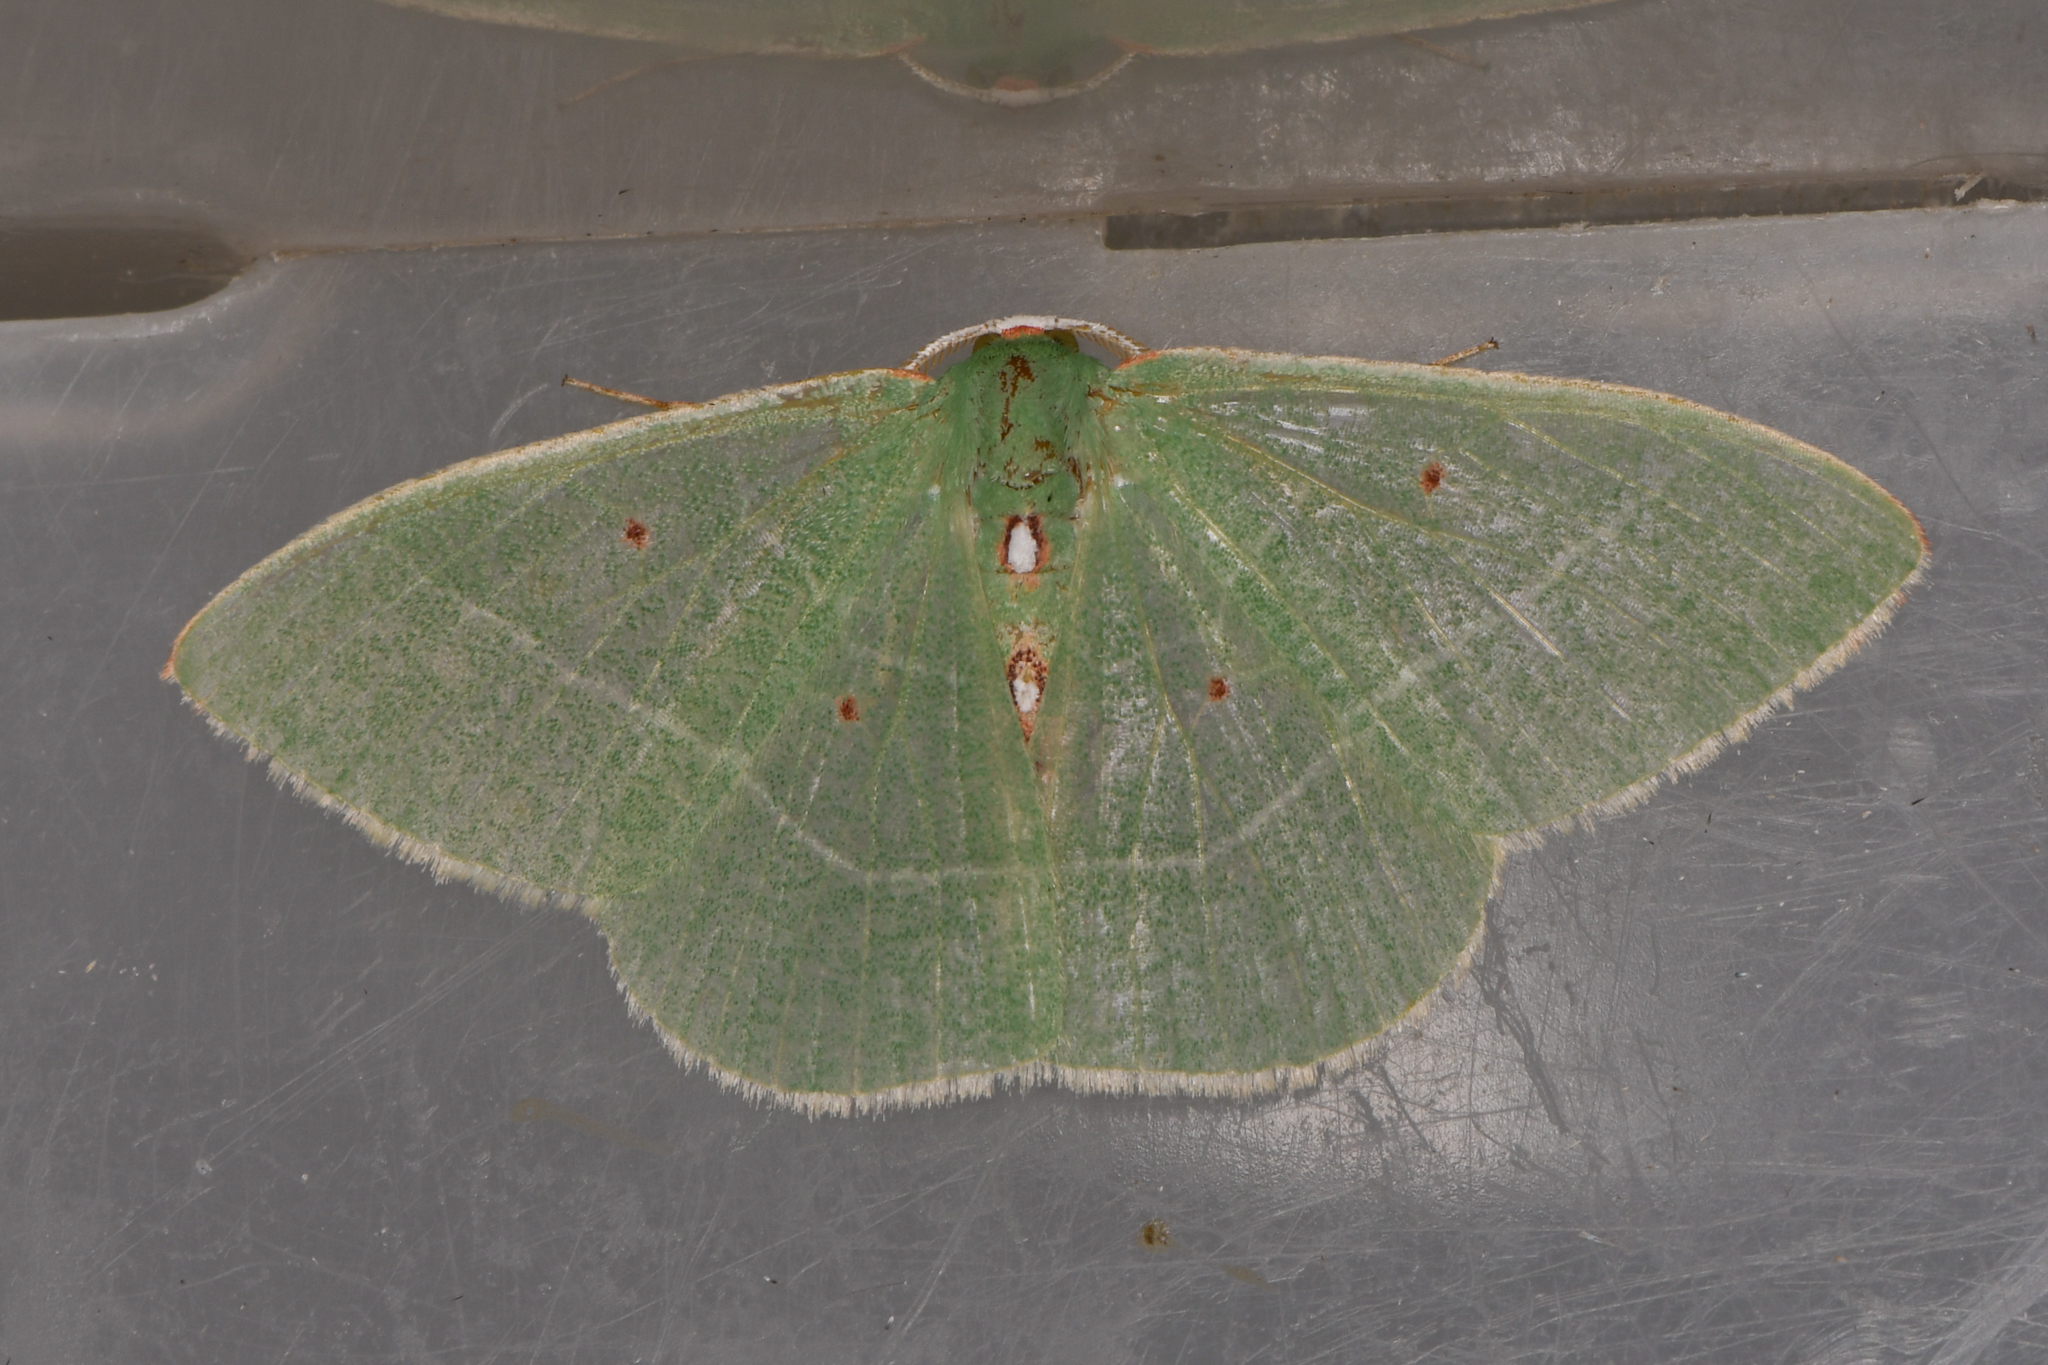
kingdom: Animalia
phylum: Arthropoda
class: Insecta
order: Lepidoptera
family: Geometridae
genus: Nemoria
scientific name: Nemoria darwiniata
